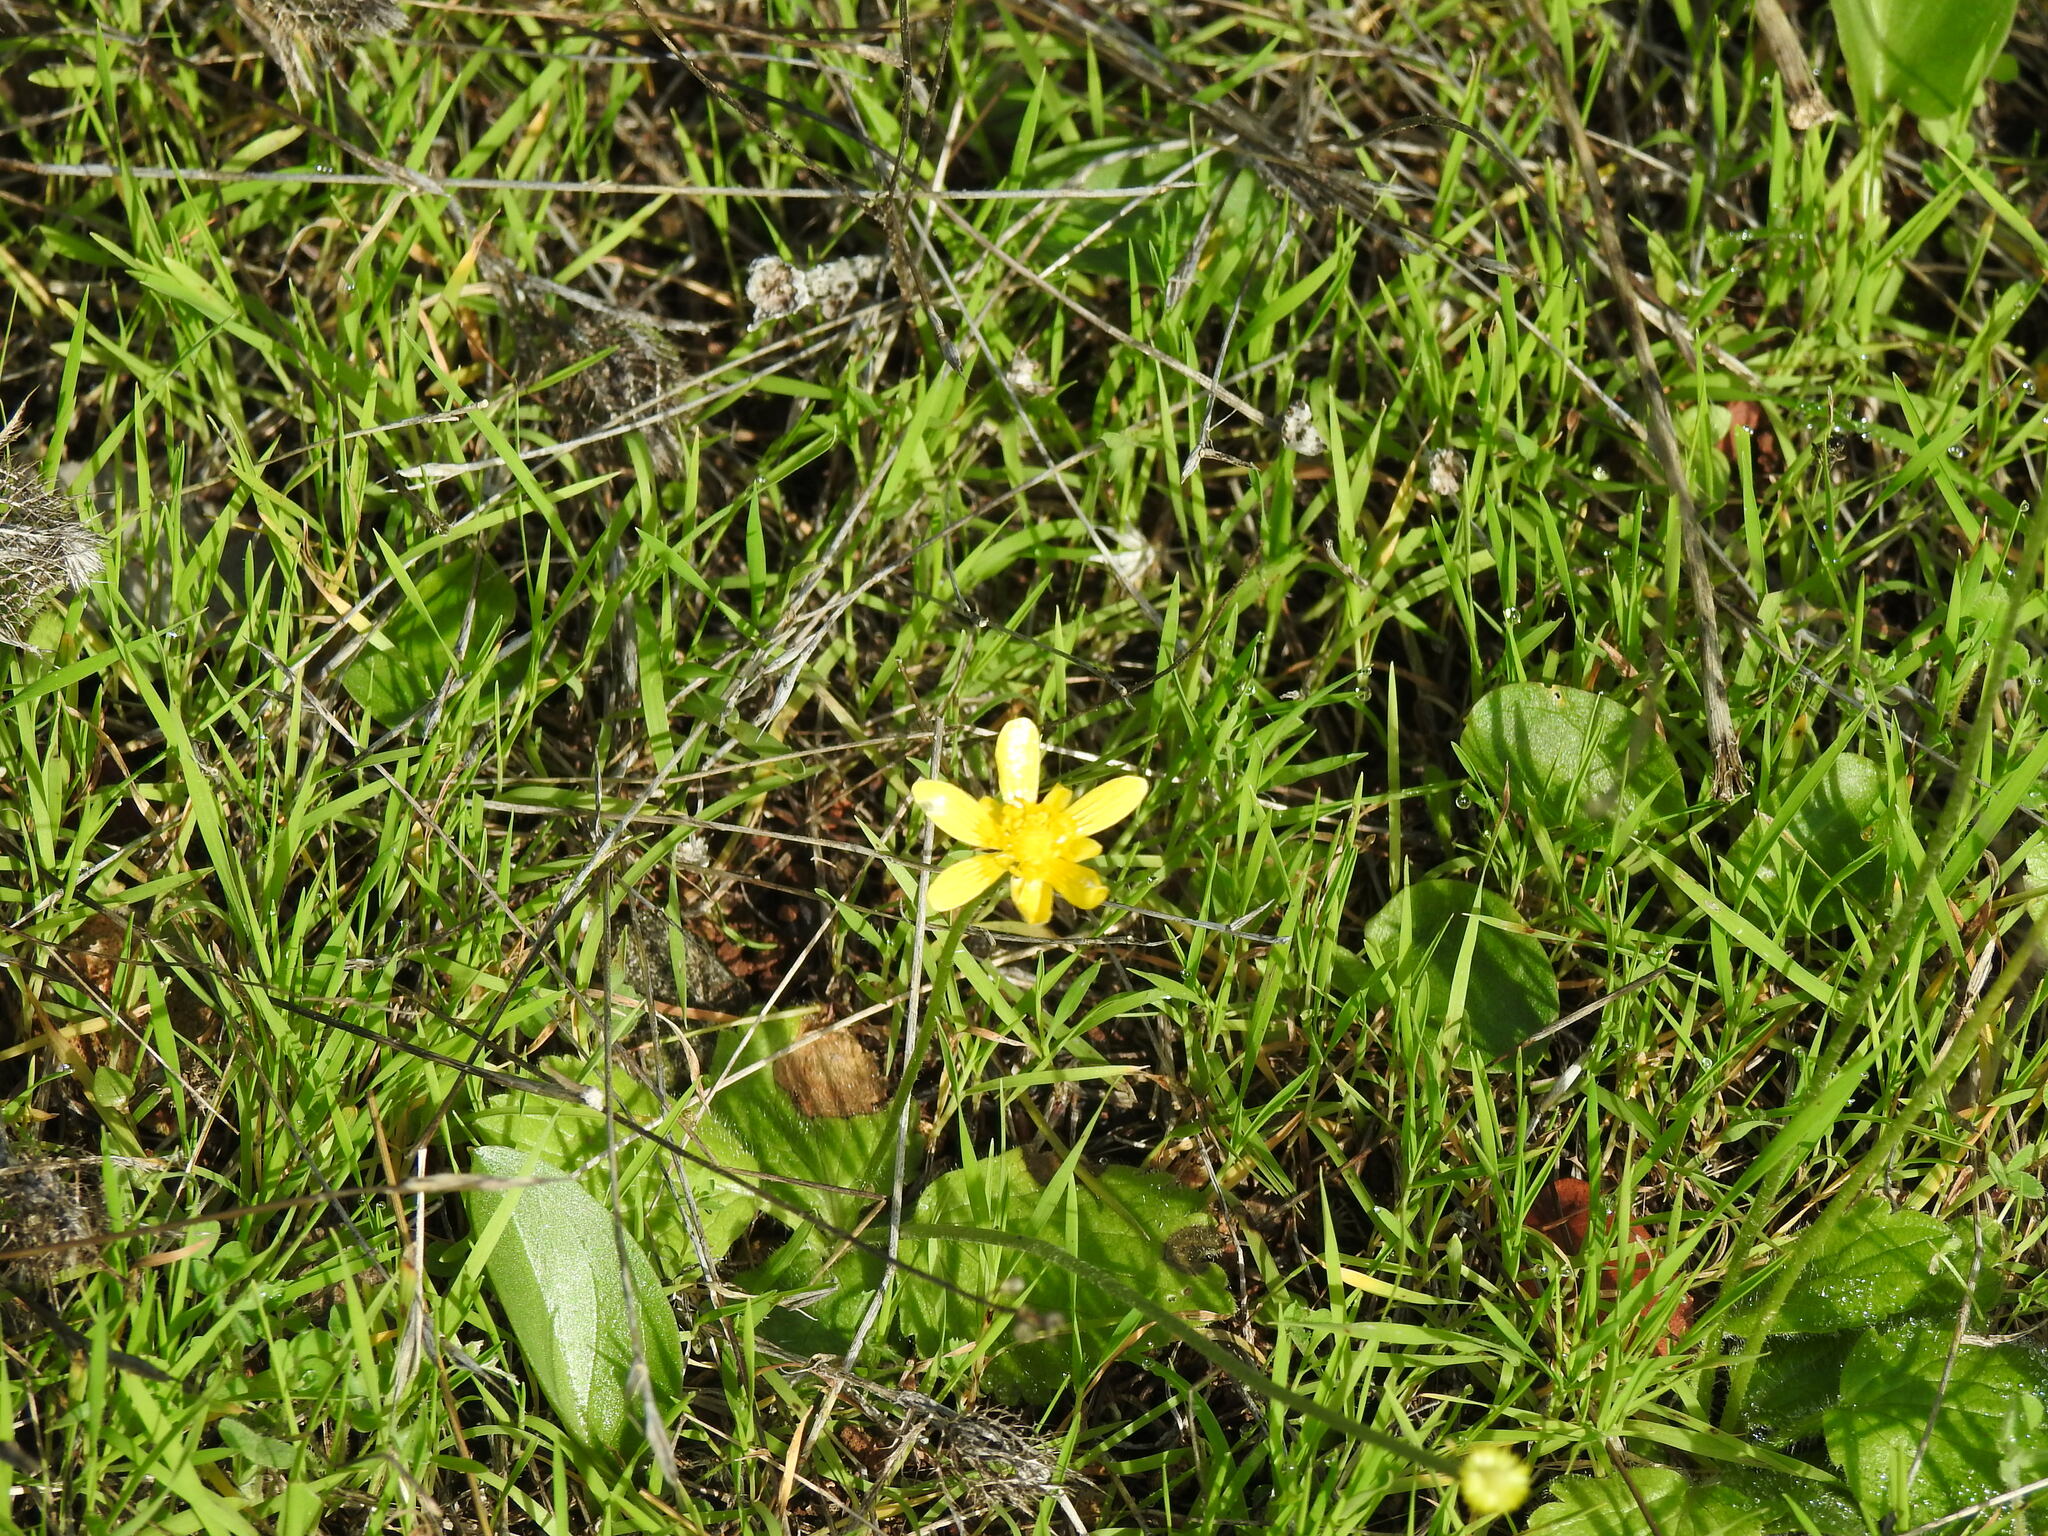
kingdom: Plantae
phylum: Tracheophyta
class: Magnoliopsida
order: Ranunculales
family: Ranunculaceae
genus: Ranunculus
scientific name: Ranunculus bullatus
